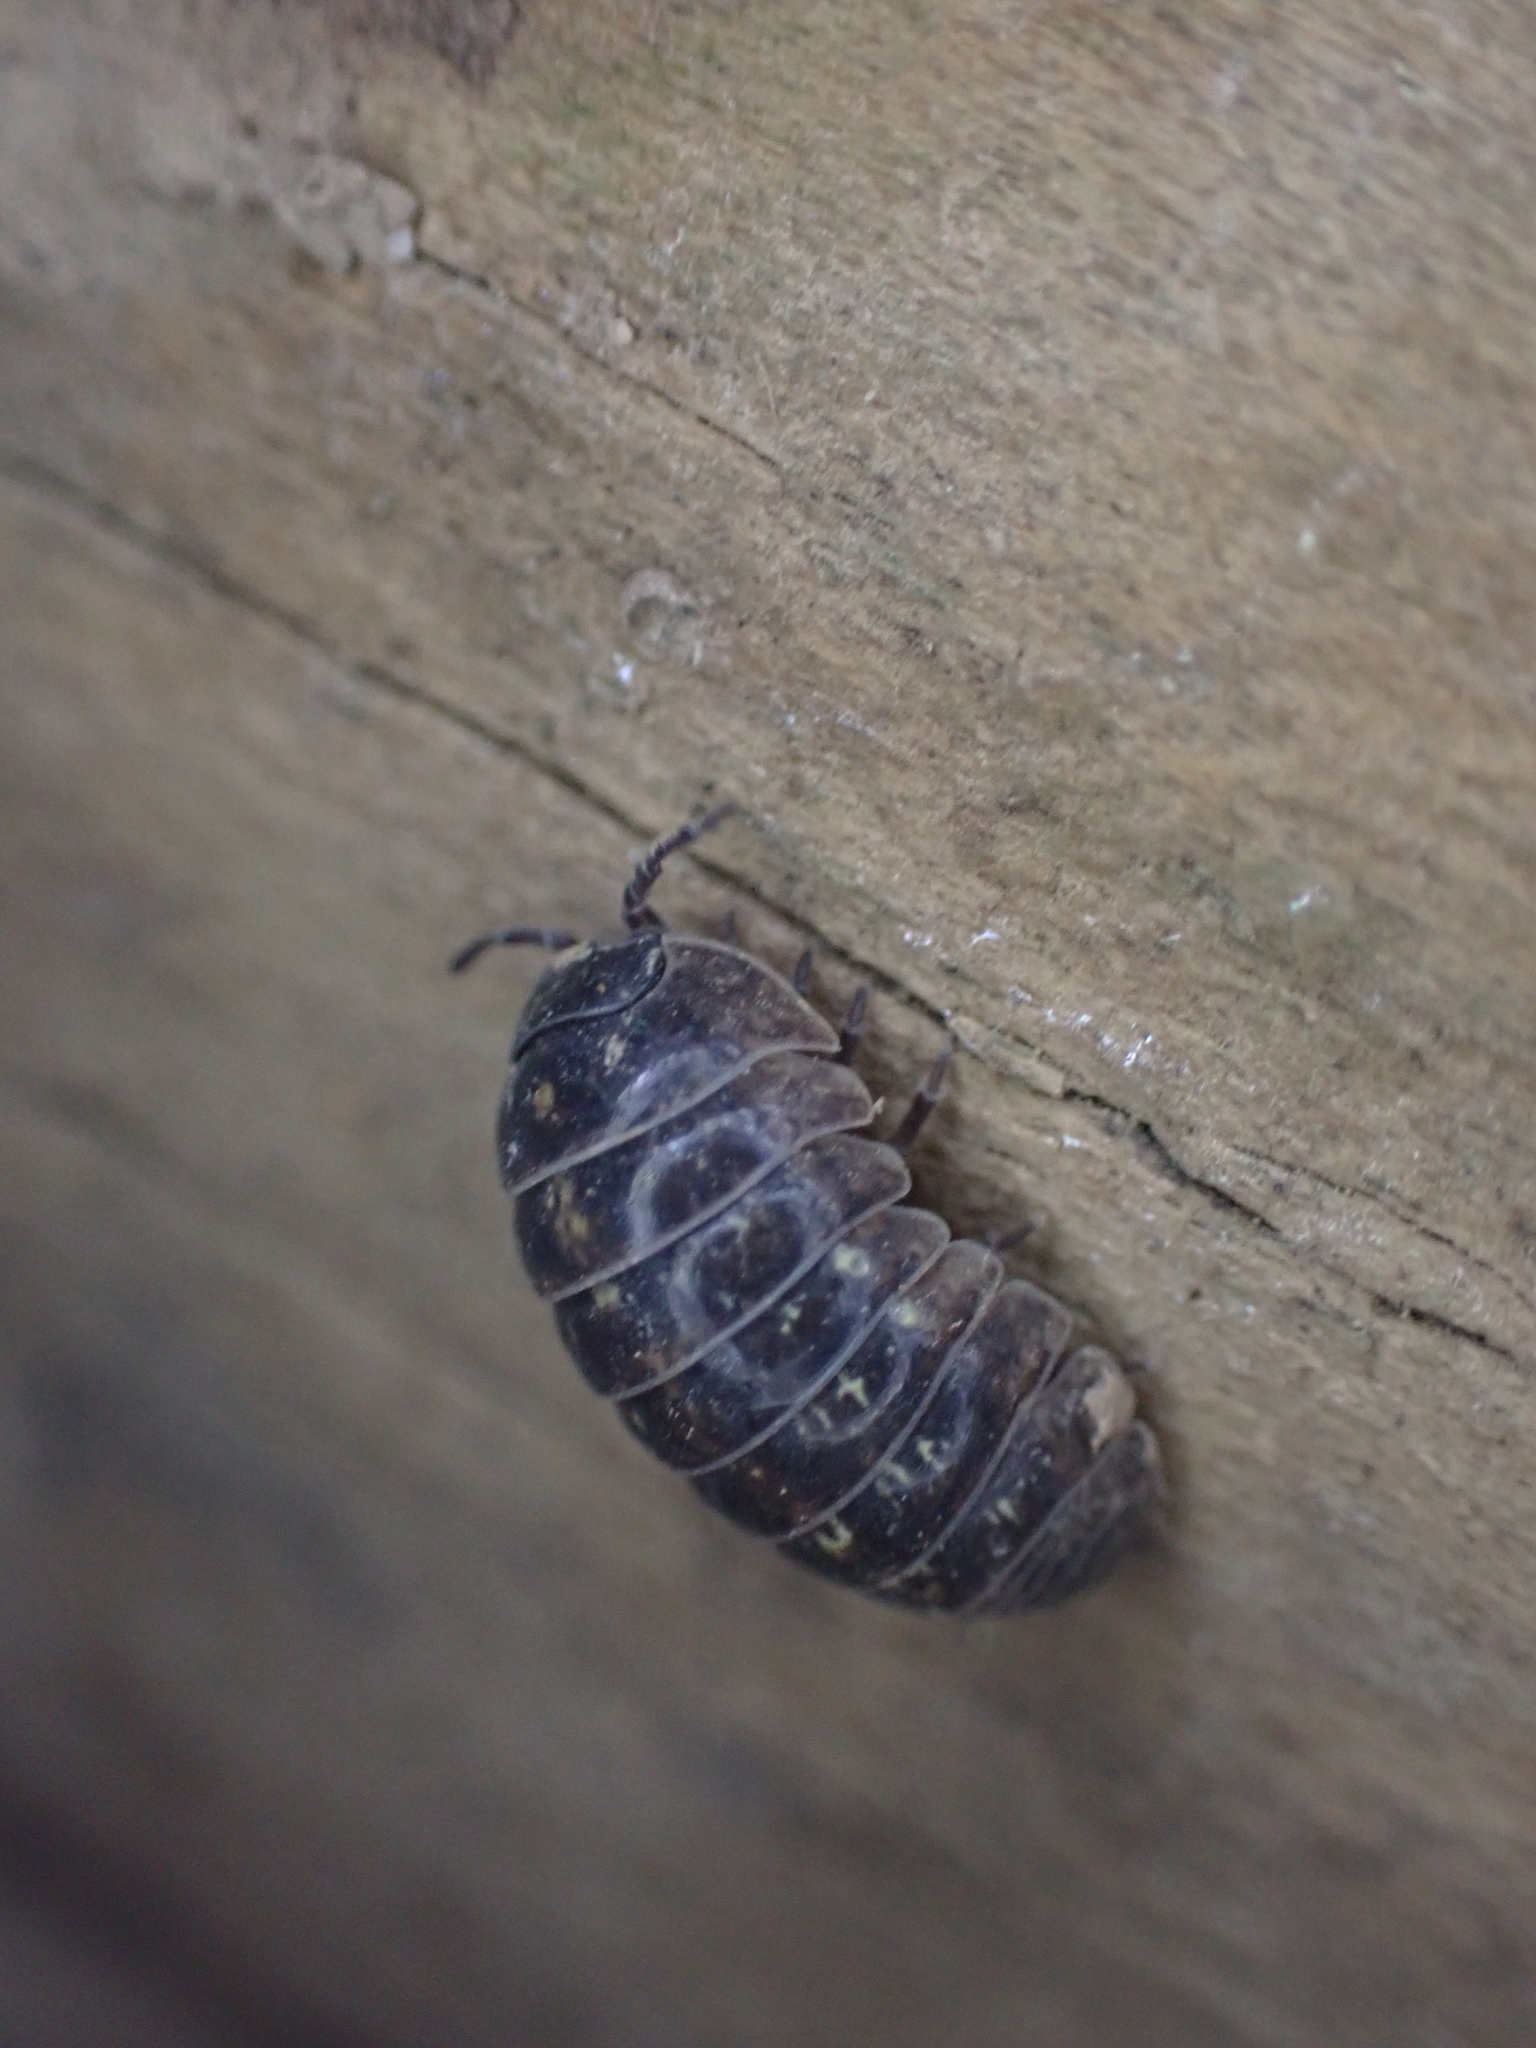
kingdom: Animalia
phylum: Arthropoda
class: Malacostraca
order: Isopoda
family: Armadillidiidae
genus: Armadillidium
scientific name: Armadillidium vulgare
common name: Common pill woodlouse
